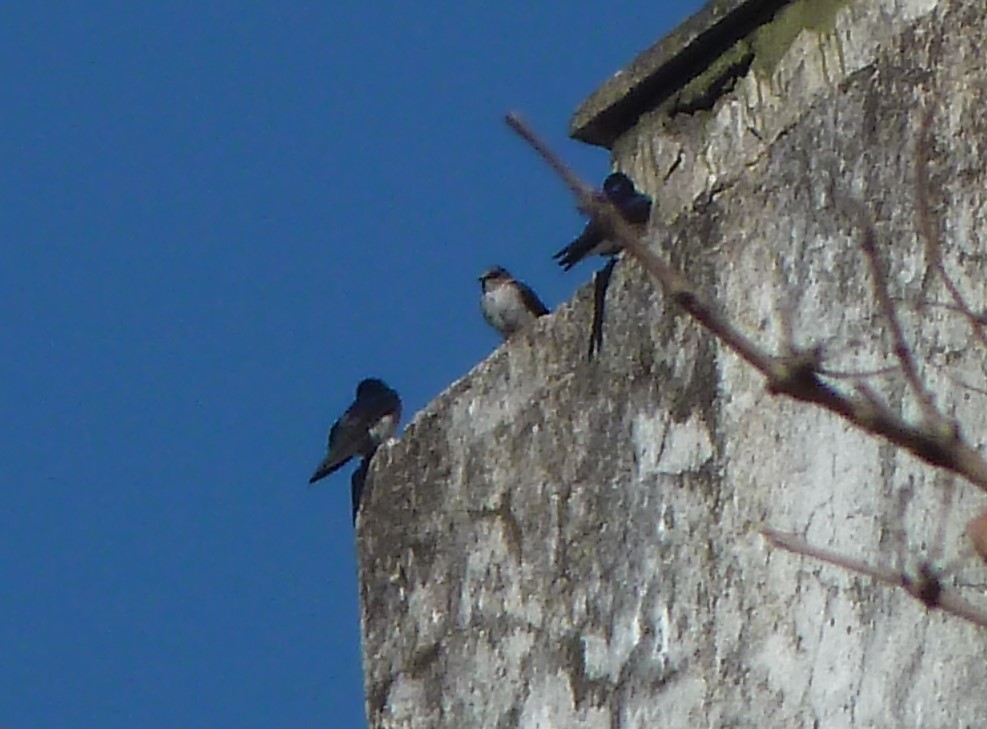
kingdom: Animalia
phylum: Chordata
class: Aves
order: Passeriformes
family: Hirundinidae
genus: Tachycineta
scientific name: Tachycineta leucorrhoa
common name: White-rumped swallow
